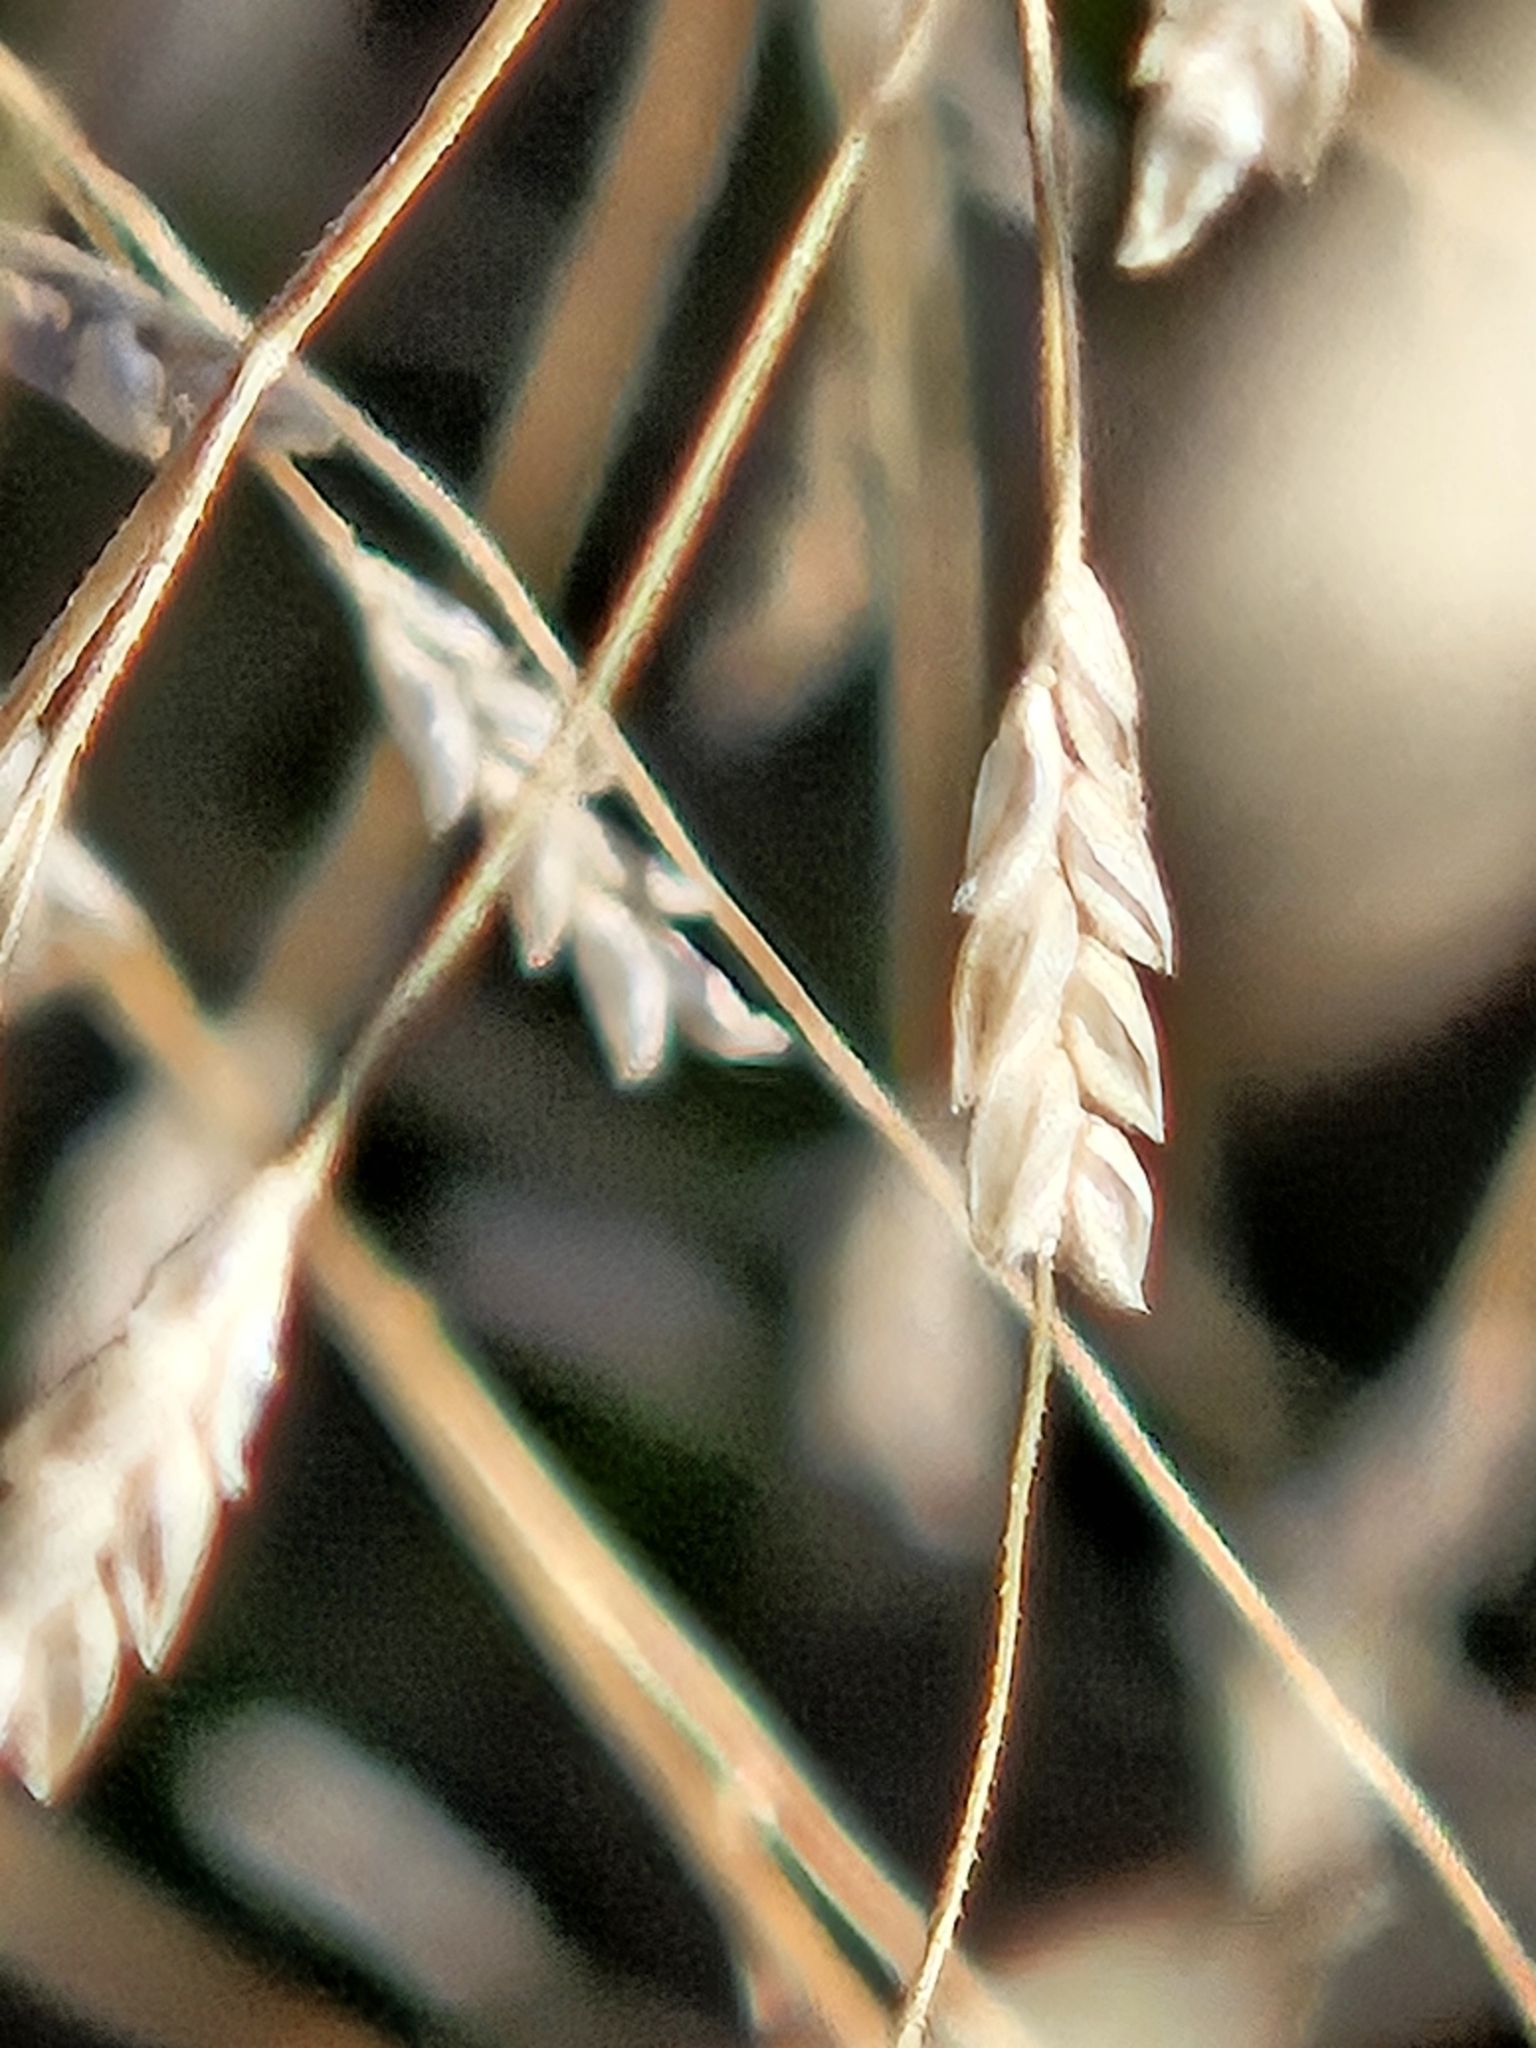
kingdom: Plantae
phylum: Tracheophyta
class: Liliopsida
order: Poales
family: Poaceae
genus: Eragrostis
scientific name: Eragrostis spectabilis
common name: Petticoat-climber
